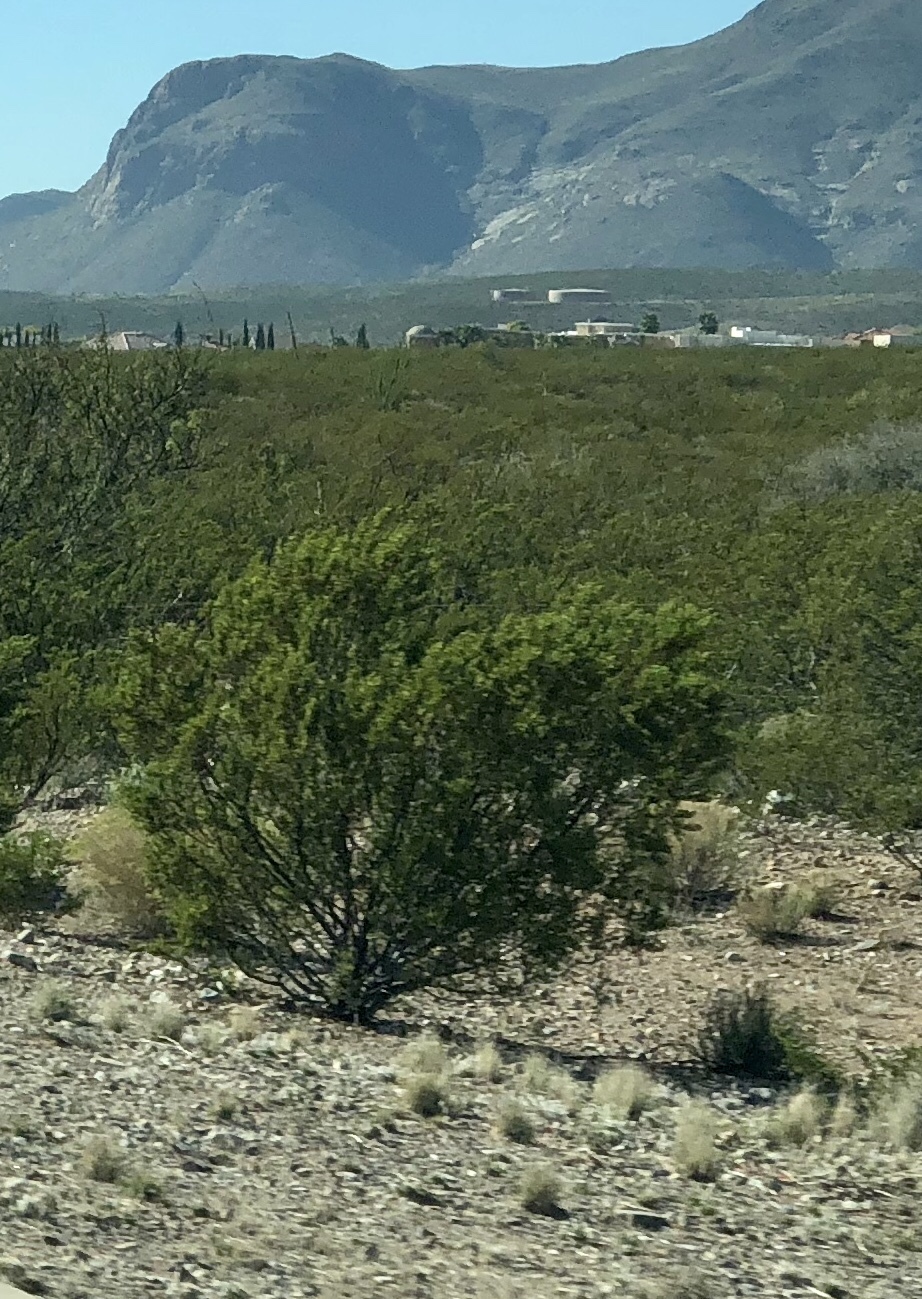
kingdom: Plantae
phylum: Tracheophyta
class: Magnoliopsida
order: Zygophyllales
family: Zygophyllaceae
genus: Larrea
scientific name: Larrea tridentata
